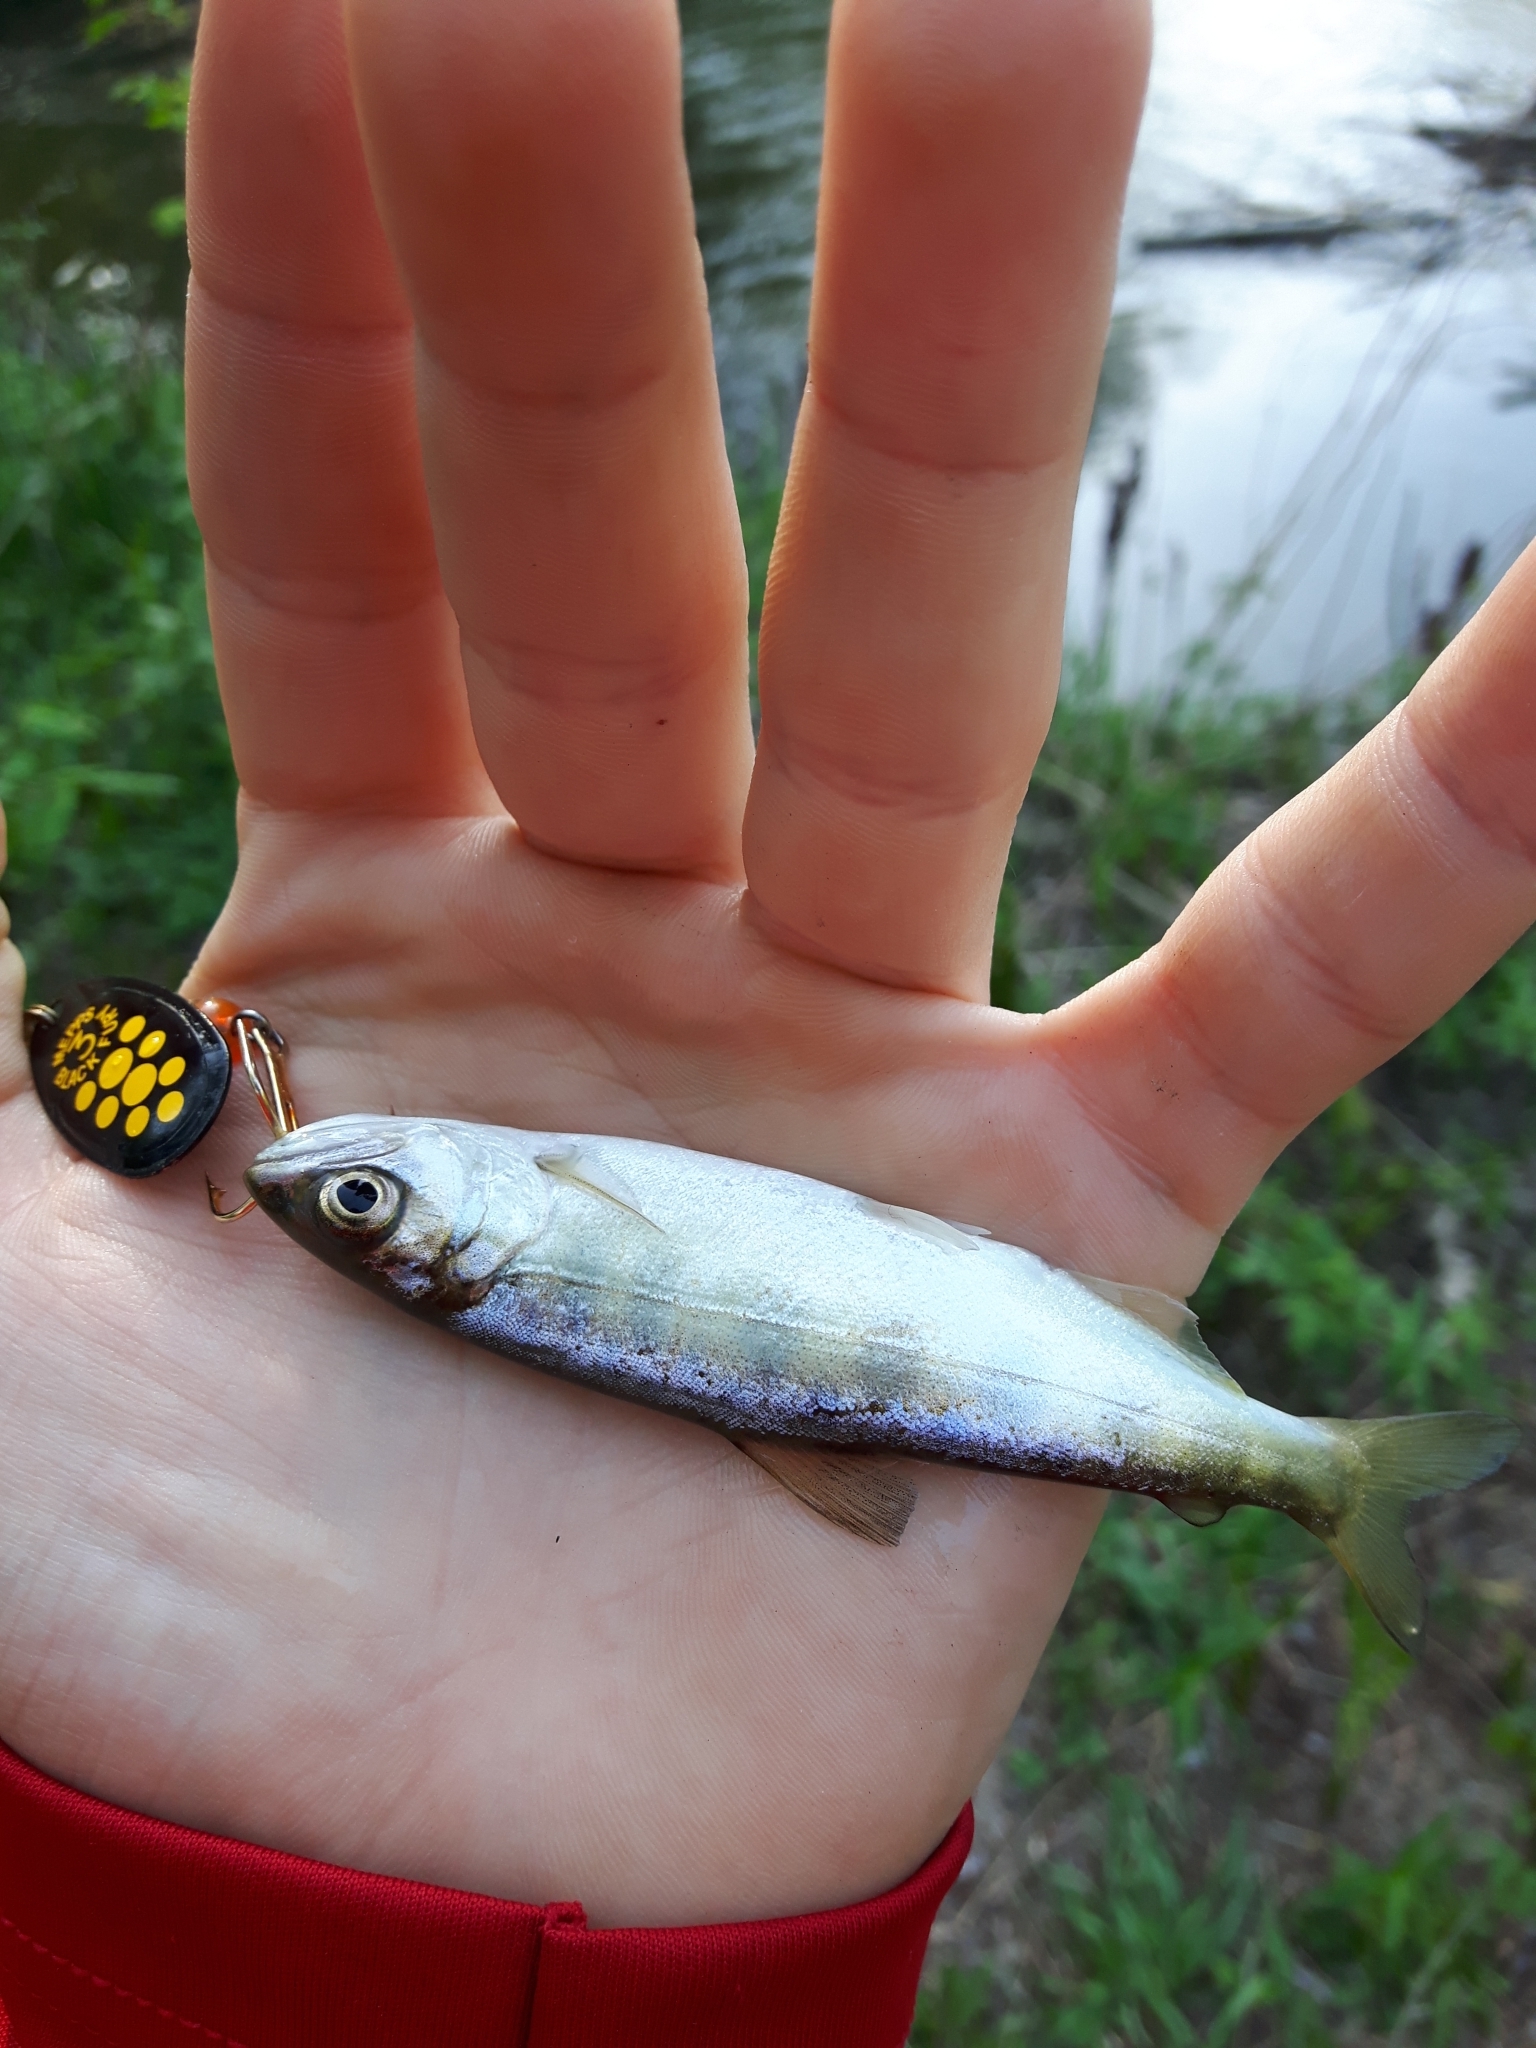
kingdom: Animalia
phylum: Chordata
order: Salmoniformes
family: Salmonidae
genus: Oncorhynchus
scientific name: Oncorhynchus tshawytscha
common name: Chinook salmon
